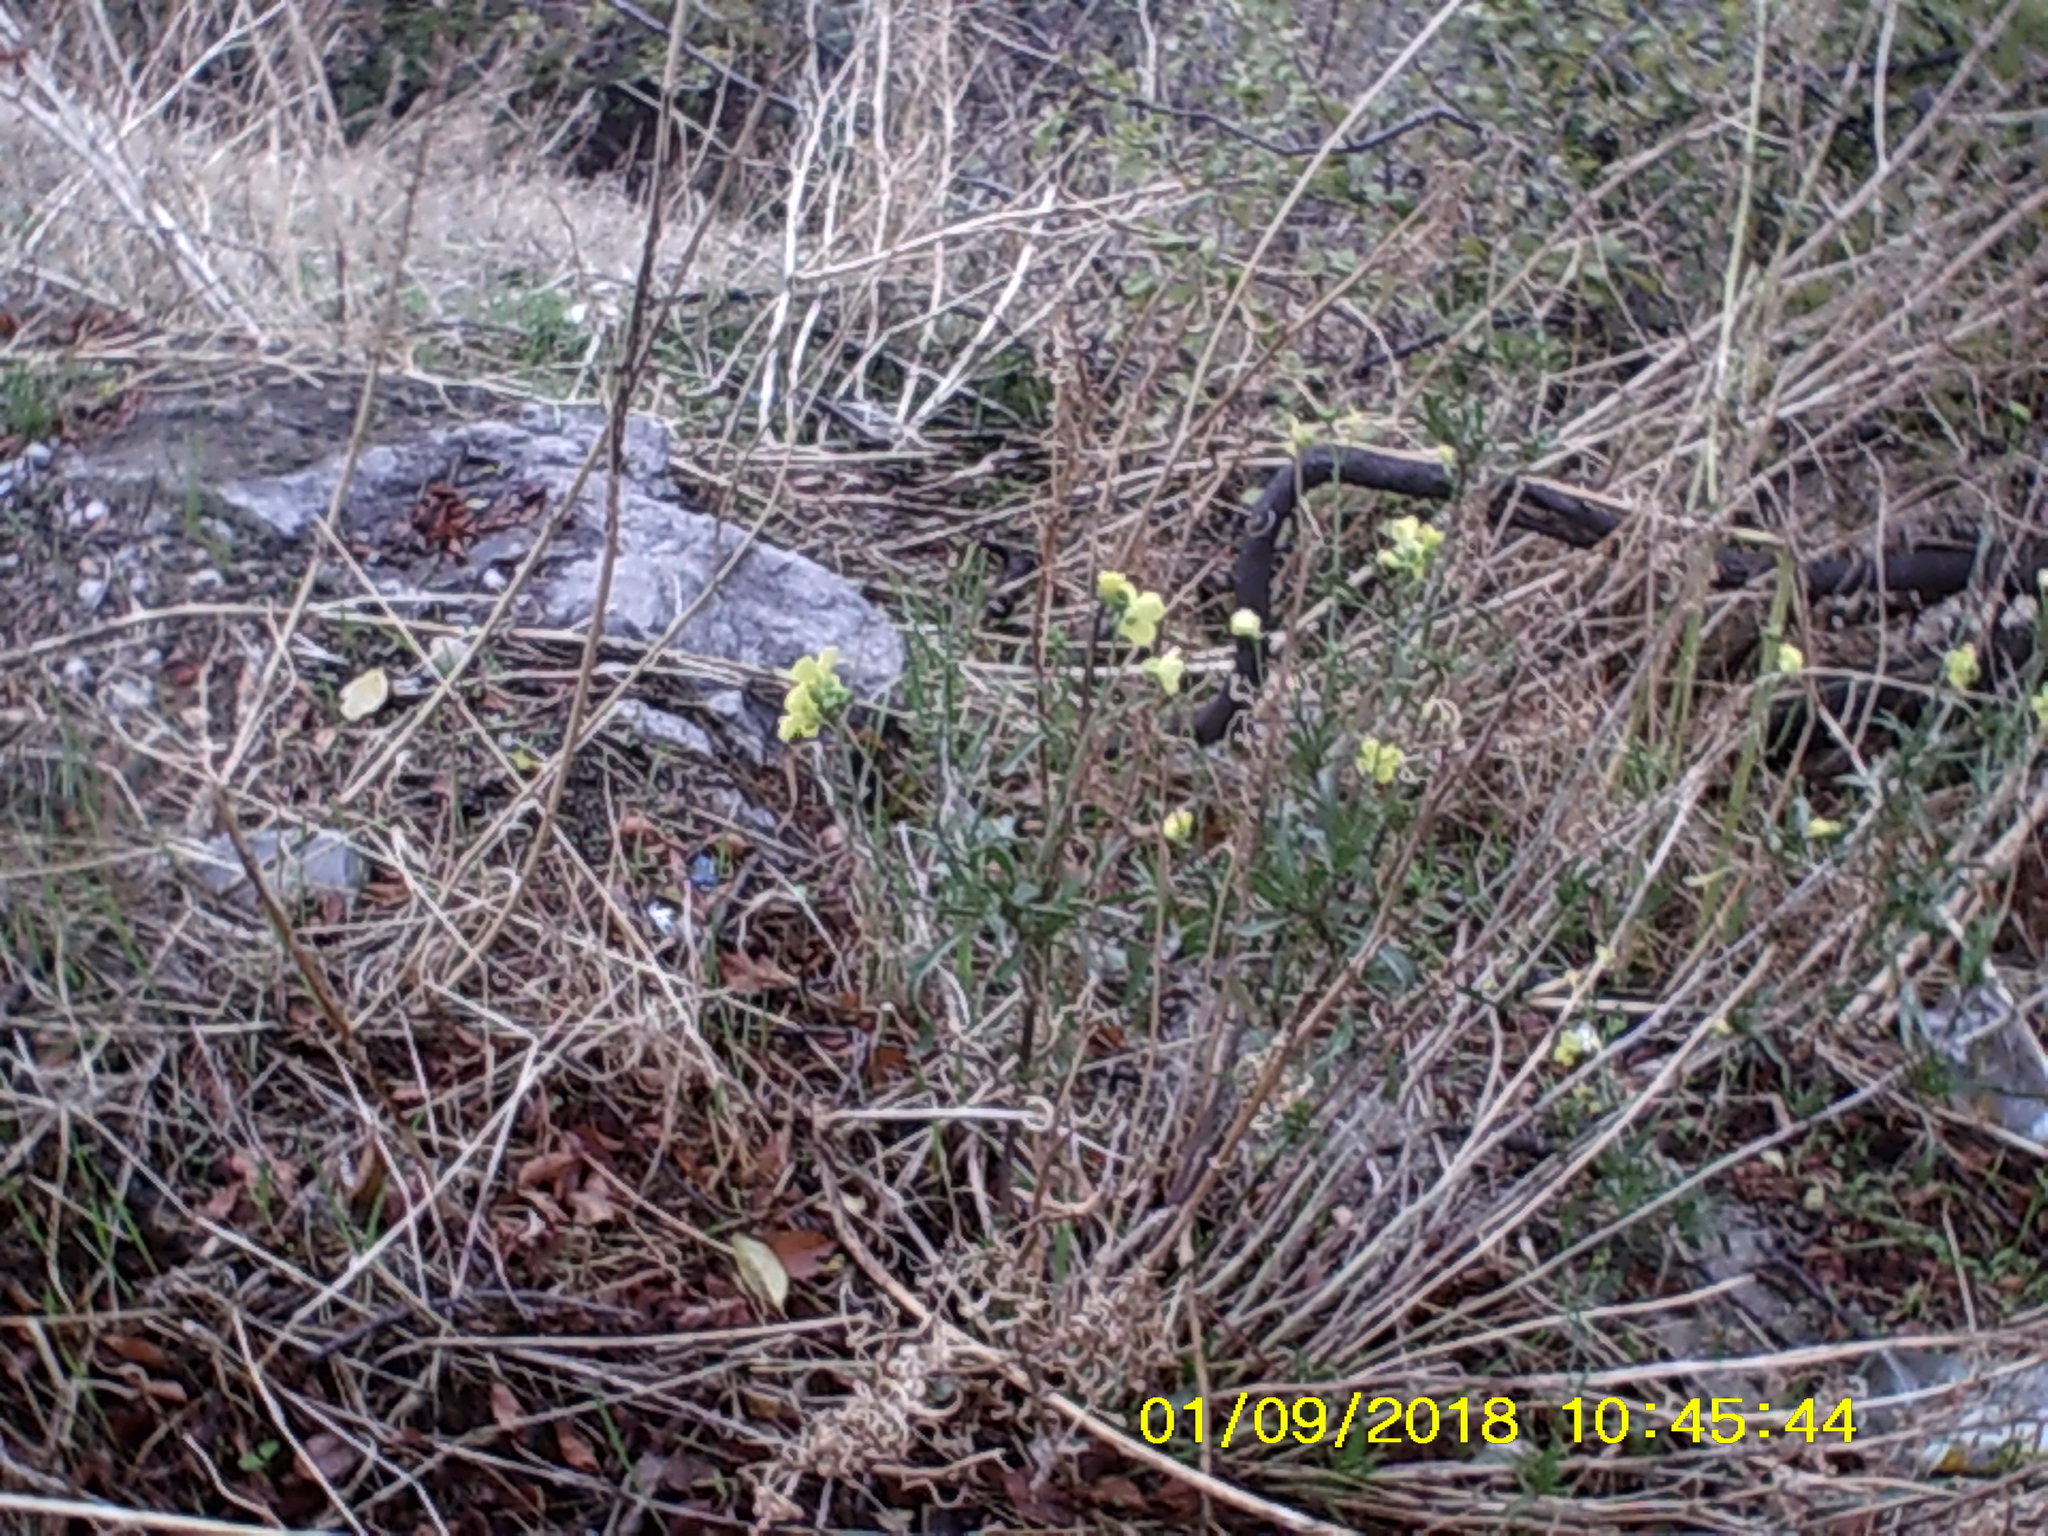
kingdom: Plantae
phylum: Tracheophyta
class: Magnoliopsida
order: Brassicales
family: Brassicaceae
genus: Diplotaxis
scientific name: Diplotaxis tenuifolia
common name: Perennial wall-rocket
